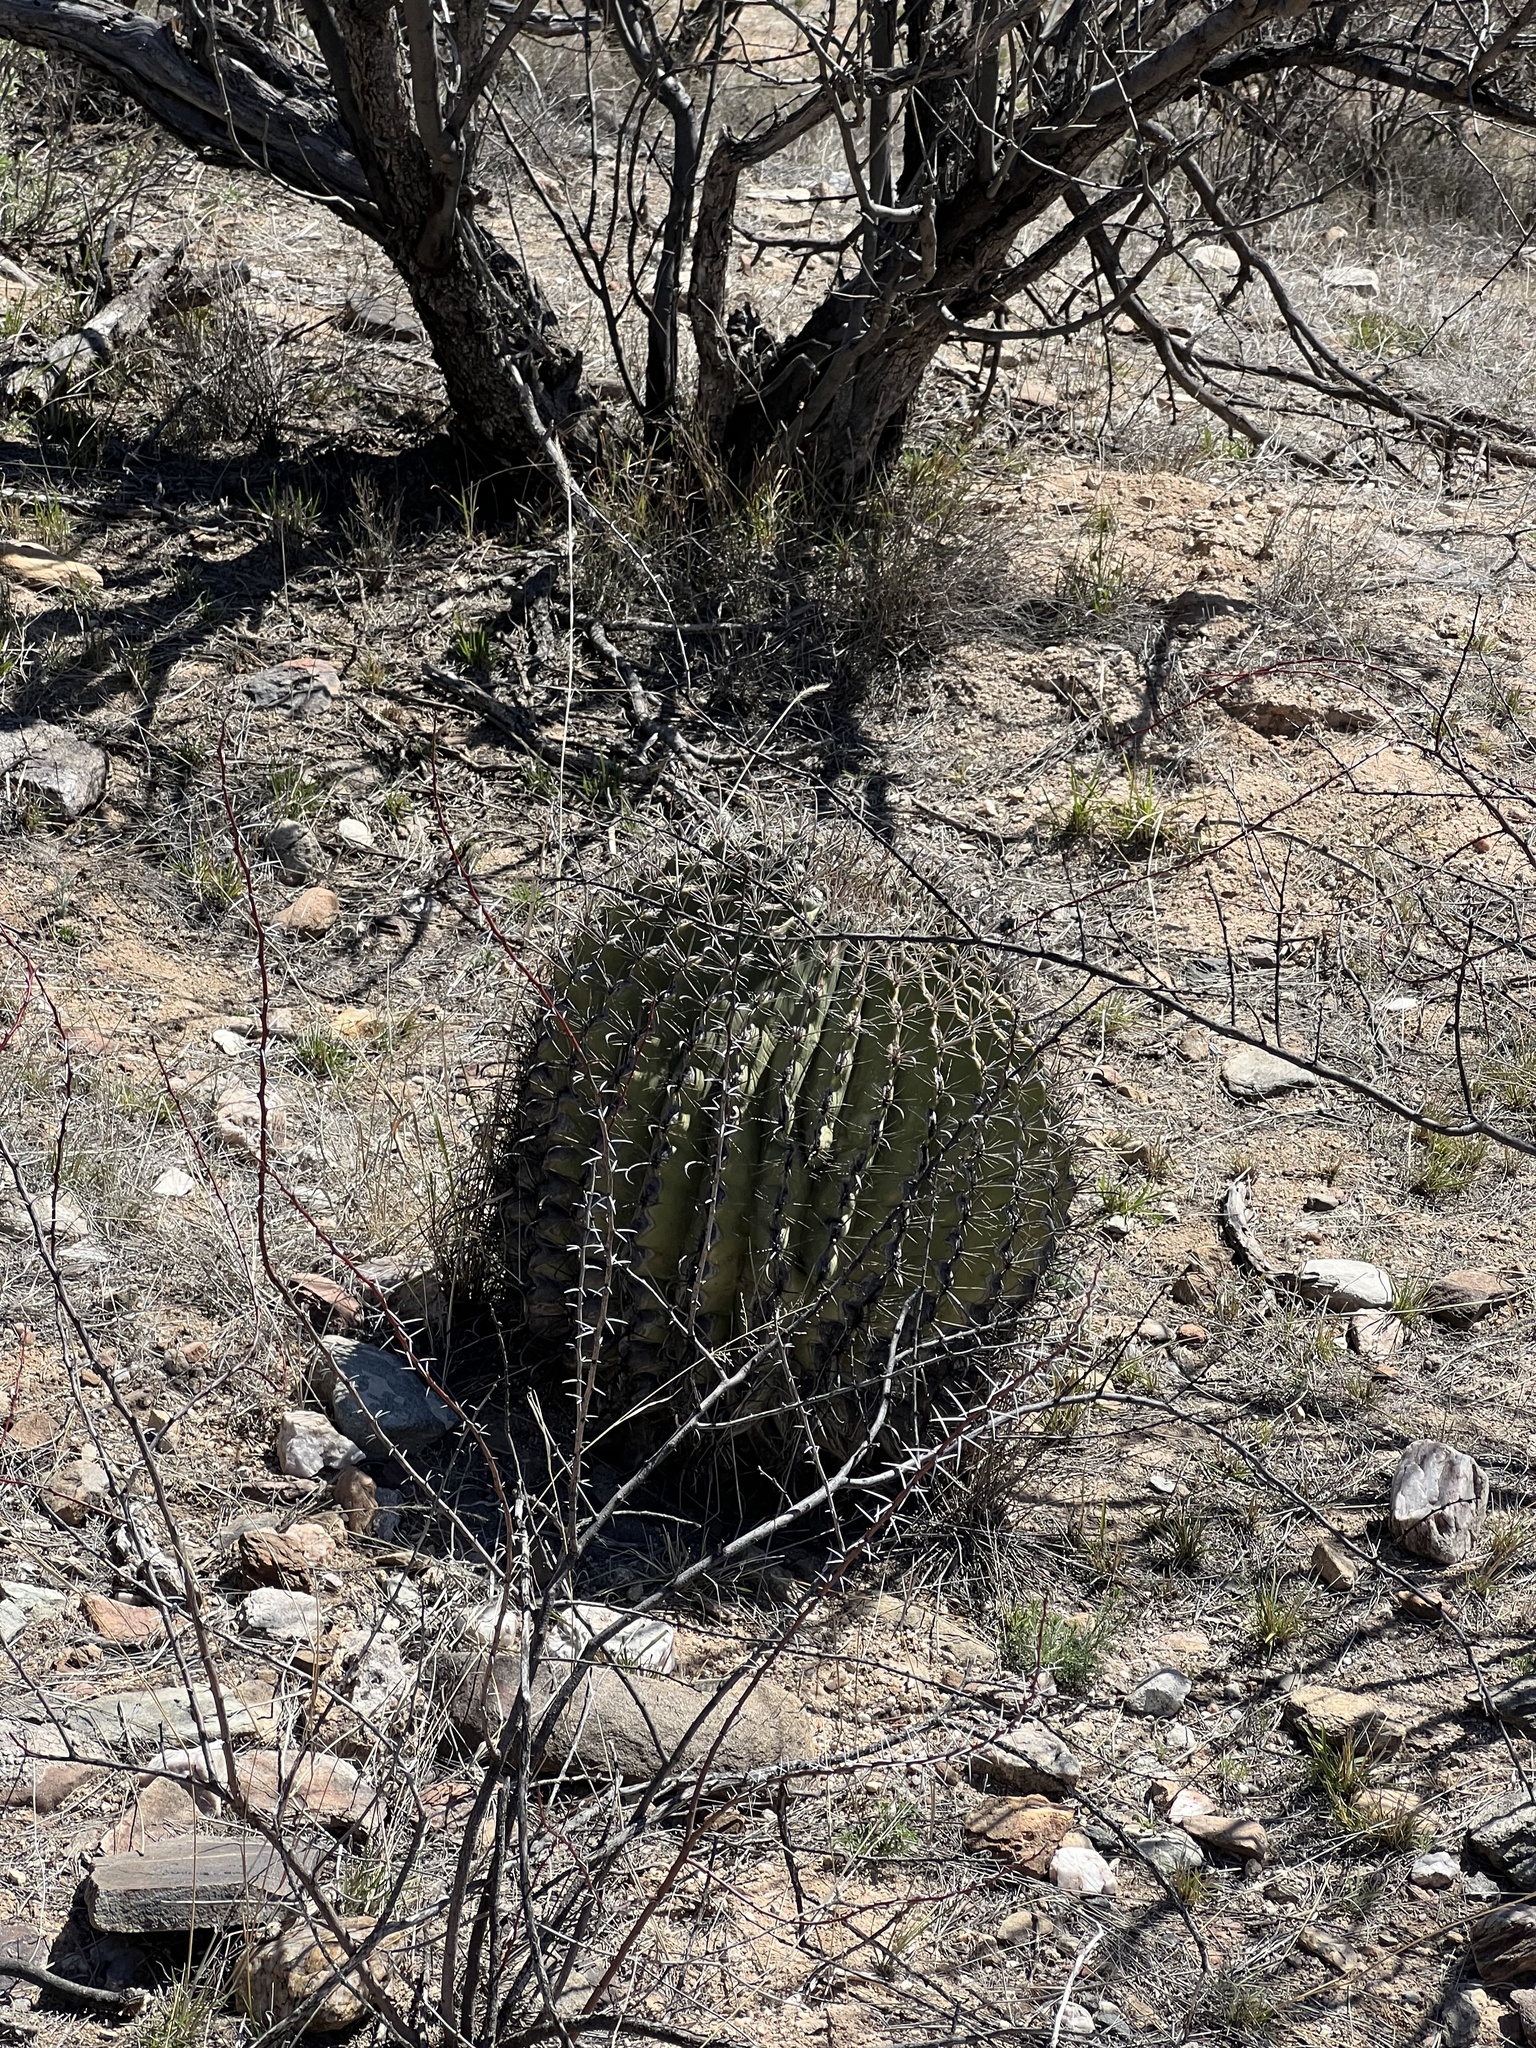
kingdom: Plantae
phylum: Tracheophyta
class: Magnoliopsida
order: Caryophyllales
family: Cactaceae
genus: Ferocactus
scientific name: Ferocactus wislizeni
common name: Candy barrel cactus
